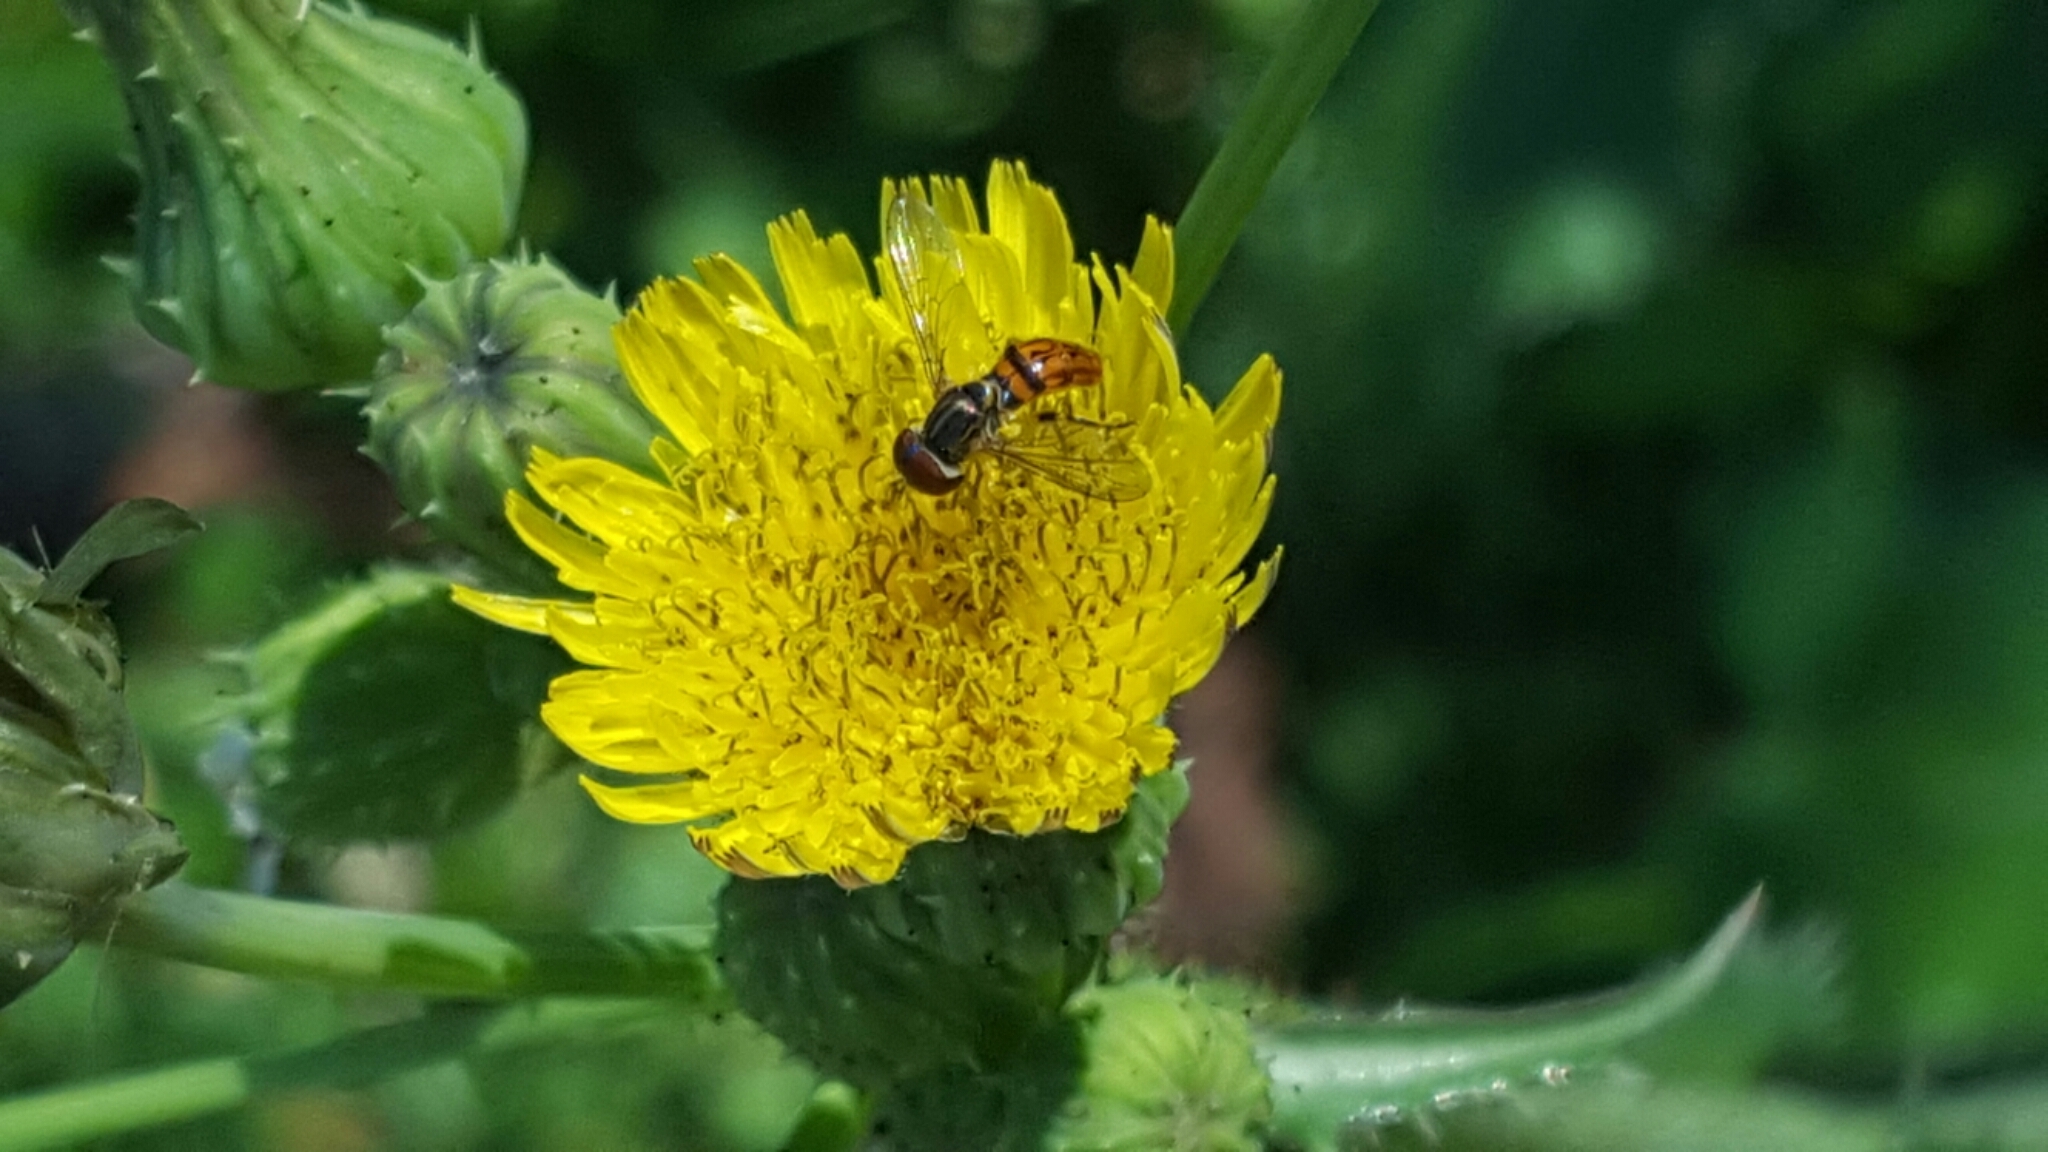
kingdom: Animalia
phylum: Arthropoda
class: Insecta
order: Diptera
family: Syrphidae
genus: Toxomerus
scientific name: Toxomerus boscii
